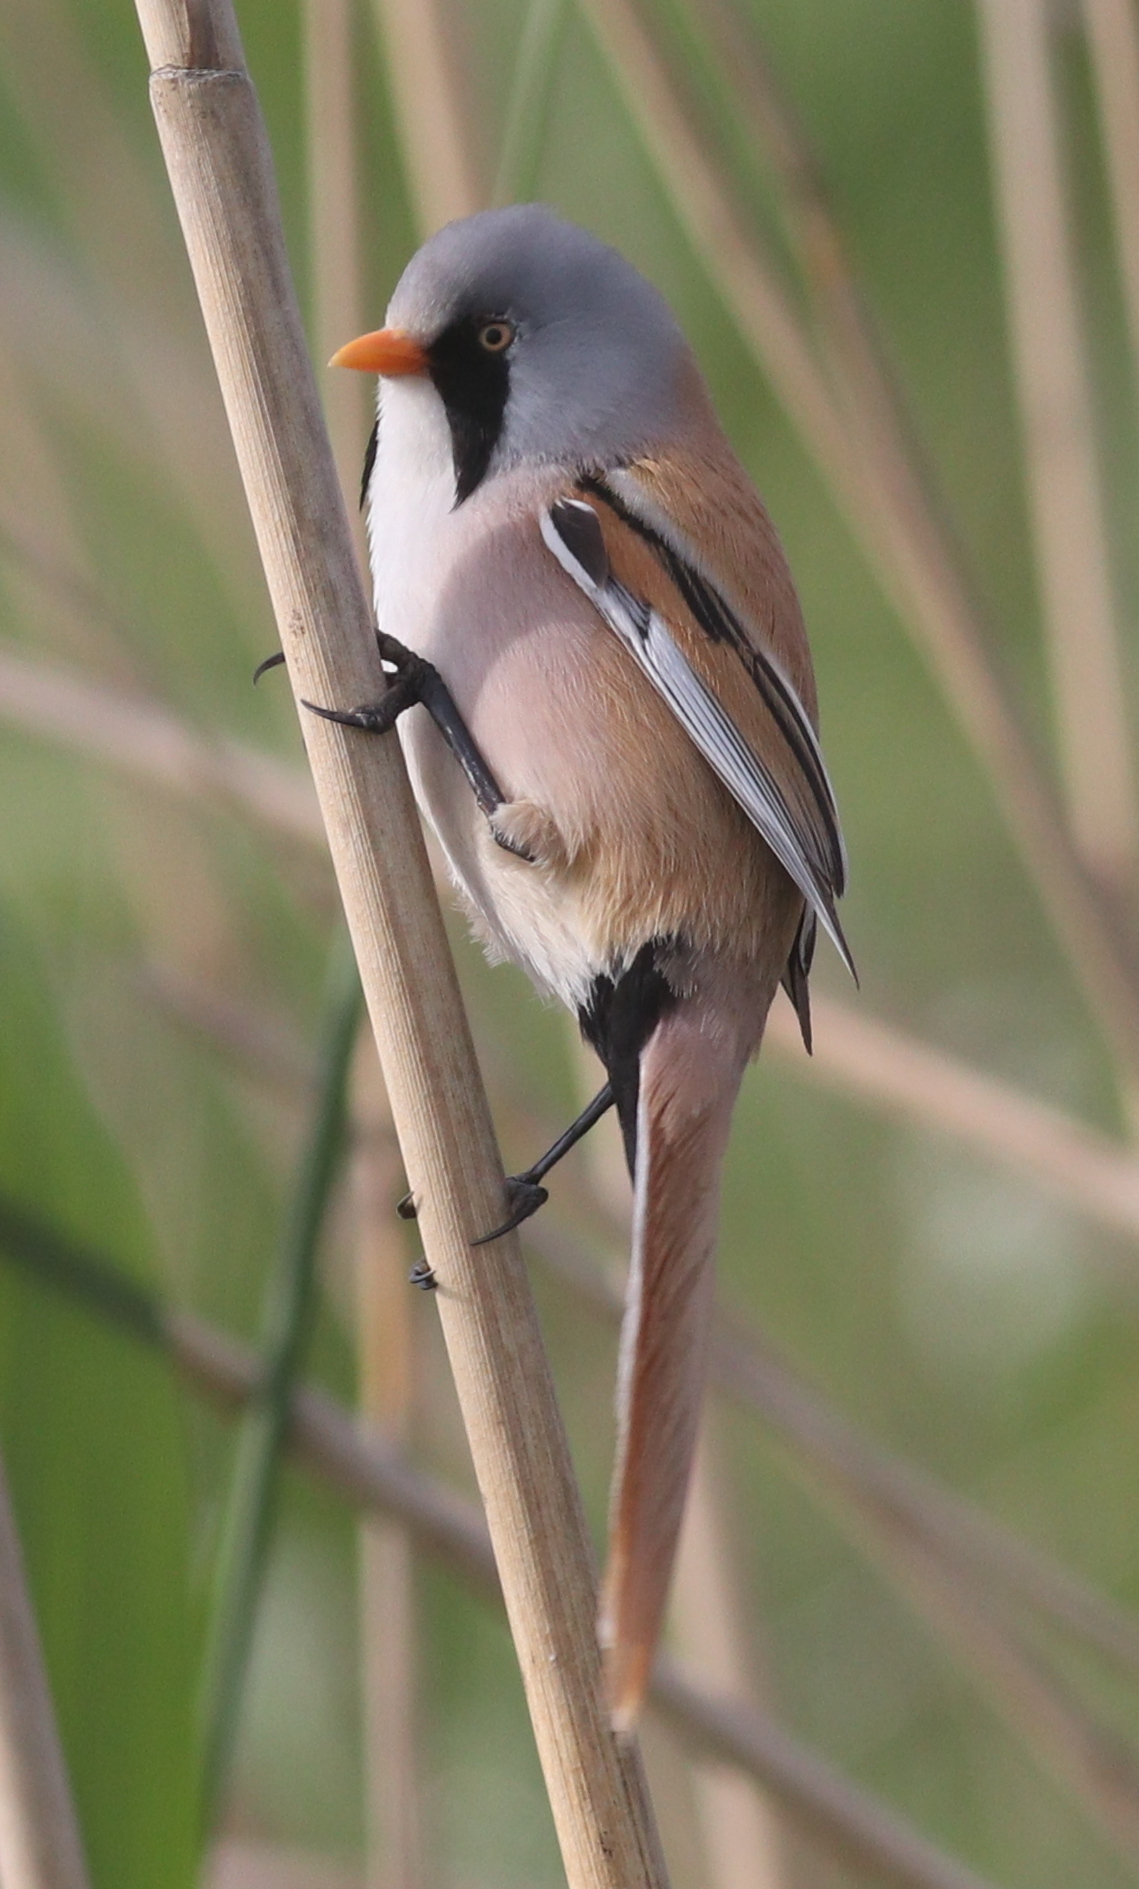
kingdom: Animalia
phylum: Chordata
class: Aves
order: Passeriformes
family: Panuridae
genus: Panurus
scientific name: Panurus biarmicus
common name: Bearded reedling
